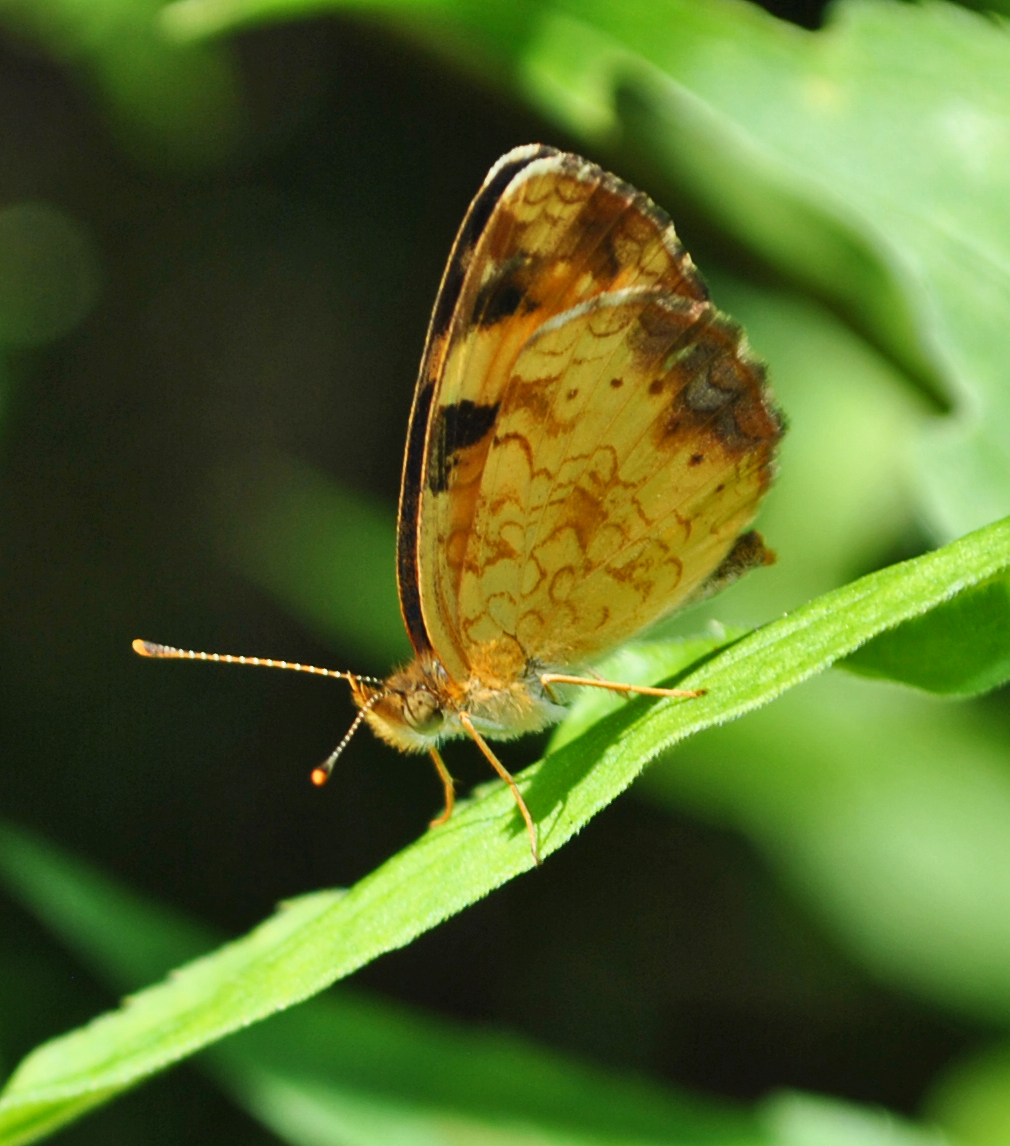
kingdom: Animalia
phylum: Arthropoda
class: Insecta
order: Lepidoptera
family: Nymphalidae
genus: Phyciodes
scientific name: Phyciodes tharos
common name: Pearl crescent
